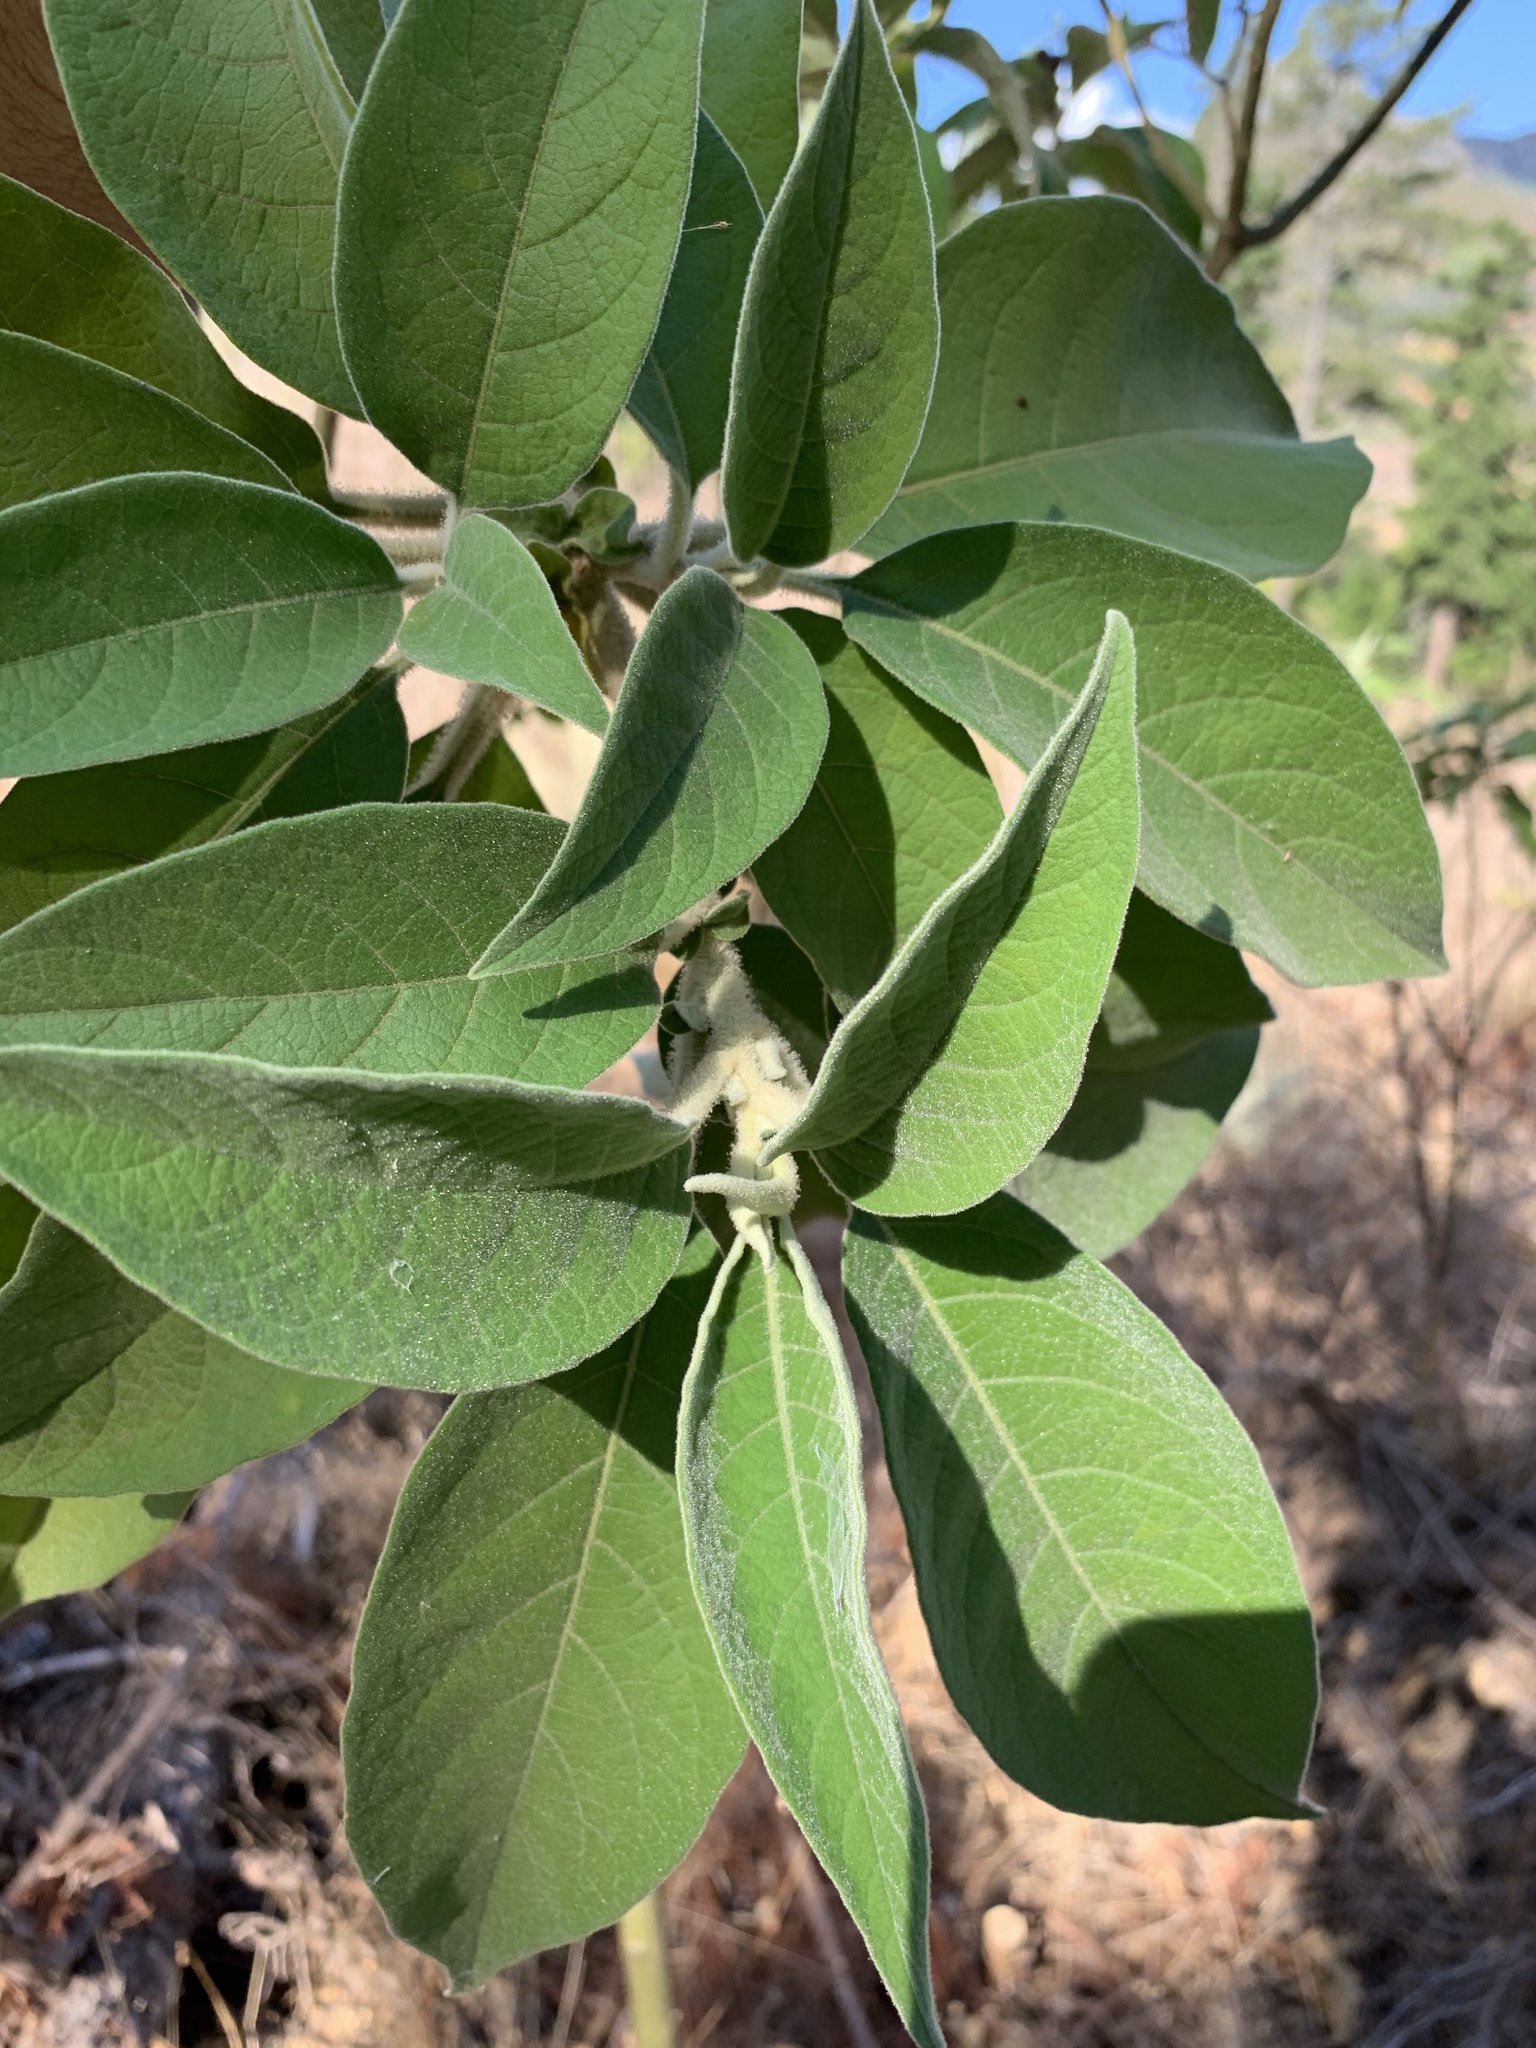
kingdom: Plantae
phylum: Tracheophyta
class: Magnoliopsida
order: Solanales
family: Solanaceae
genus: Solanum
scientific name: Solanum mauritianum
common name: Earleaf nightshade
